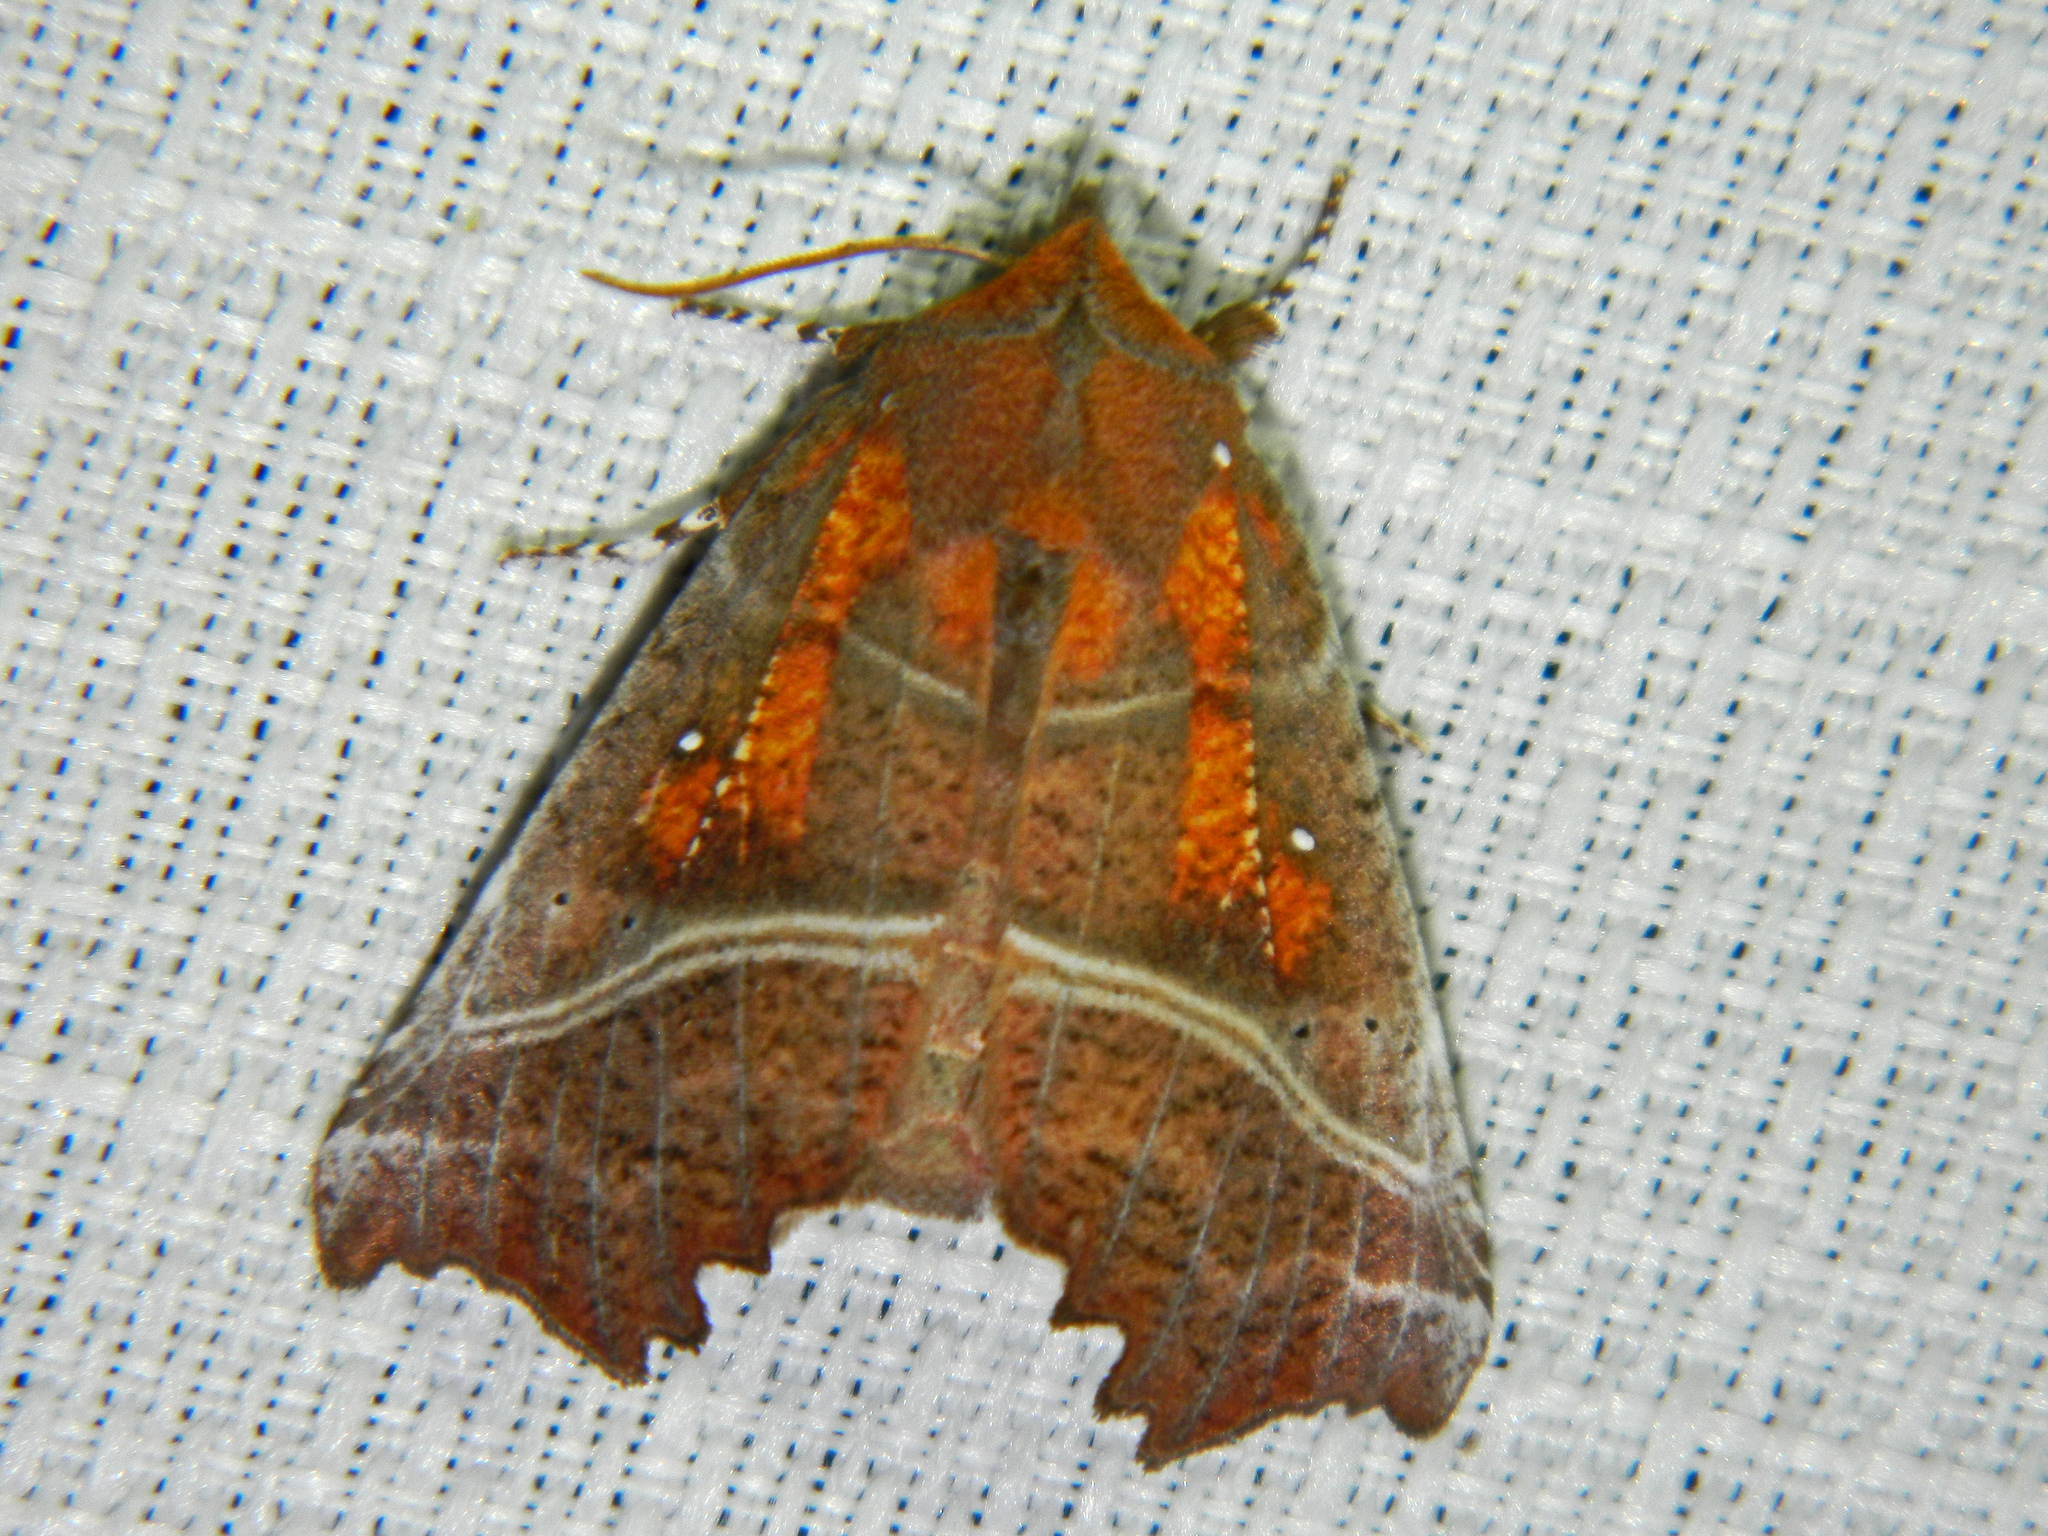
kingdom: Animalia
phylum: Arthropoda
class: Insecta
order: Lepidoptera
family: Erebidae
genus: Scoliopteryx
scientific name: Scoliopteryx libatrix
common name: Herald
